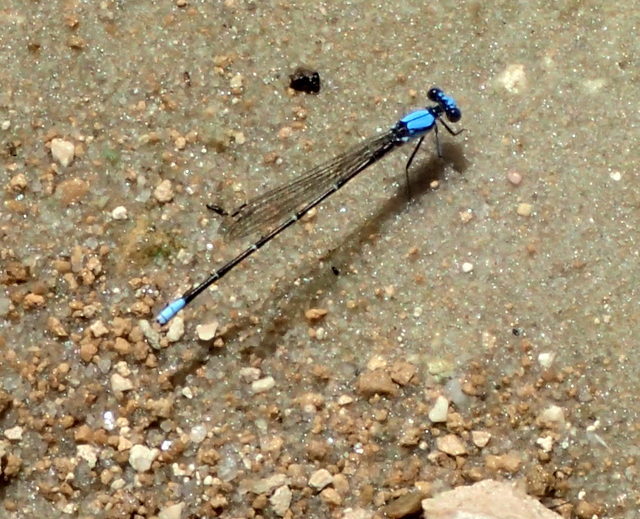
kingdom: Animalia
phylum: Arthropoda
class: Insecta
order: Odonata
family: Coenagrionidae
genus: Argia
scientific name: Argia apicalis
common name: Blue-fronted dancer
